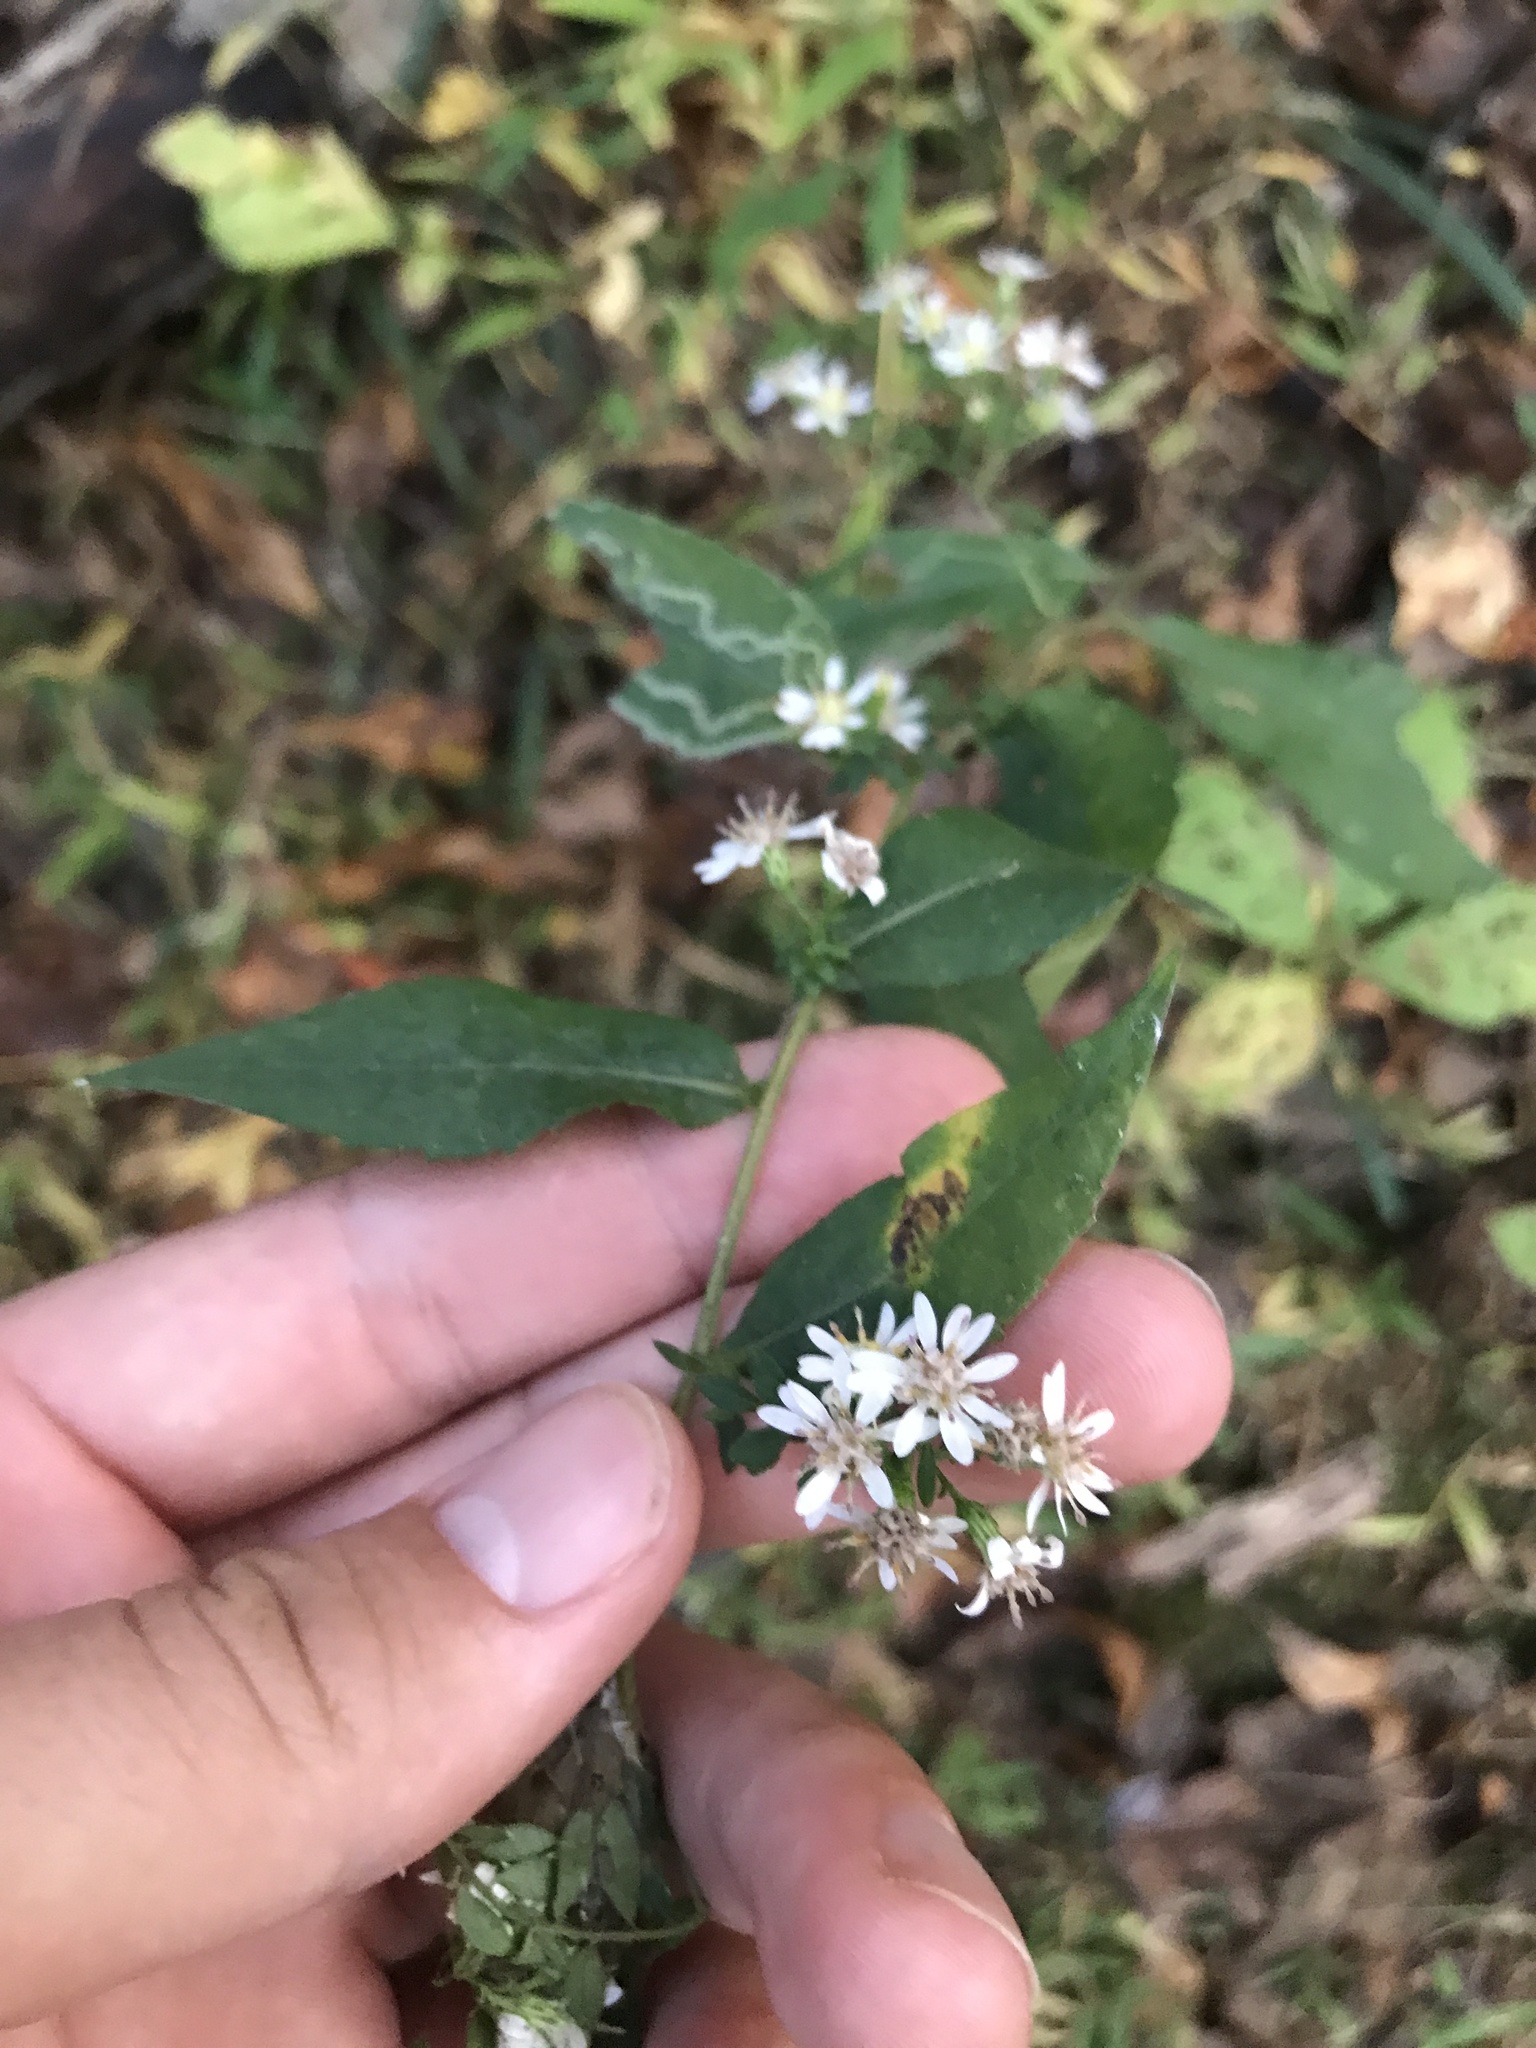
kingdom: Plantae
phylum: Tracheophyta
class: Magnoliopsida
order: Asterales
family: Asteraceae
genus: Symphyotrichum
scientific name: Symphyotrichum lateriflorum
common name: Calico aster
